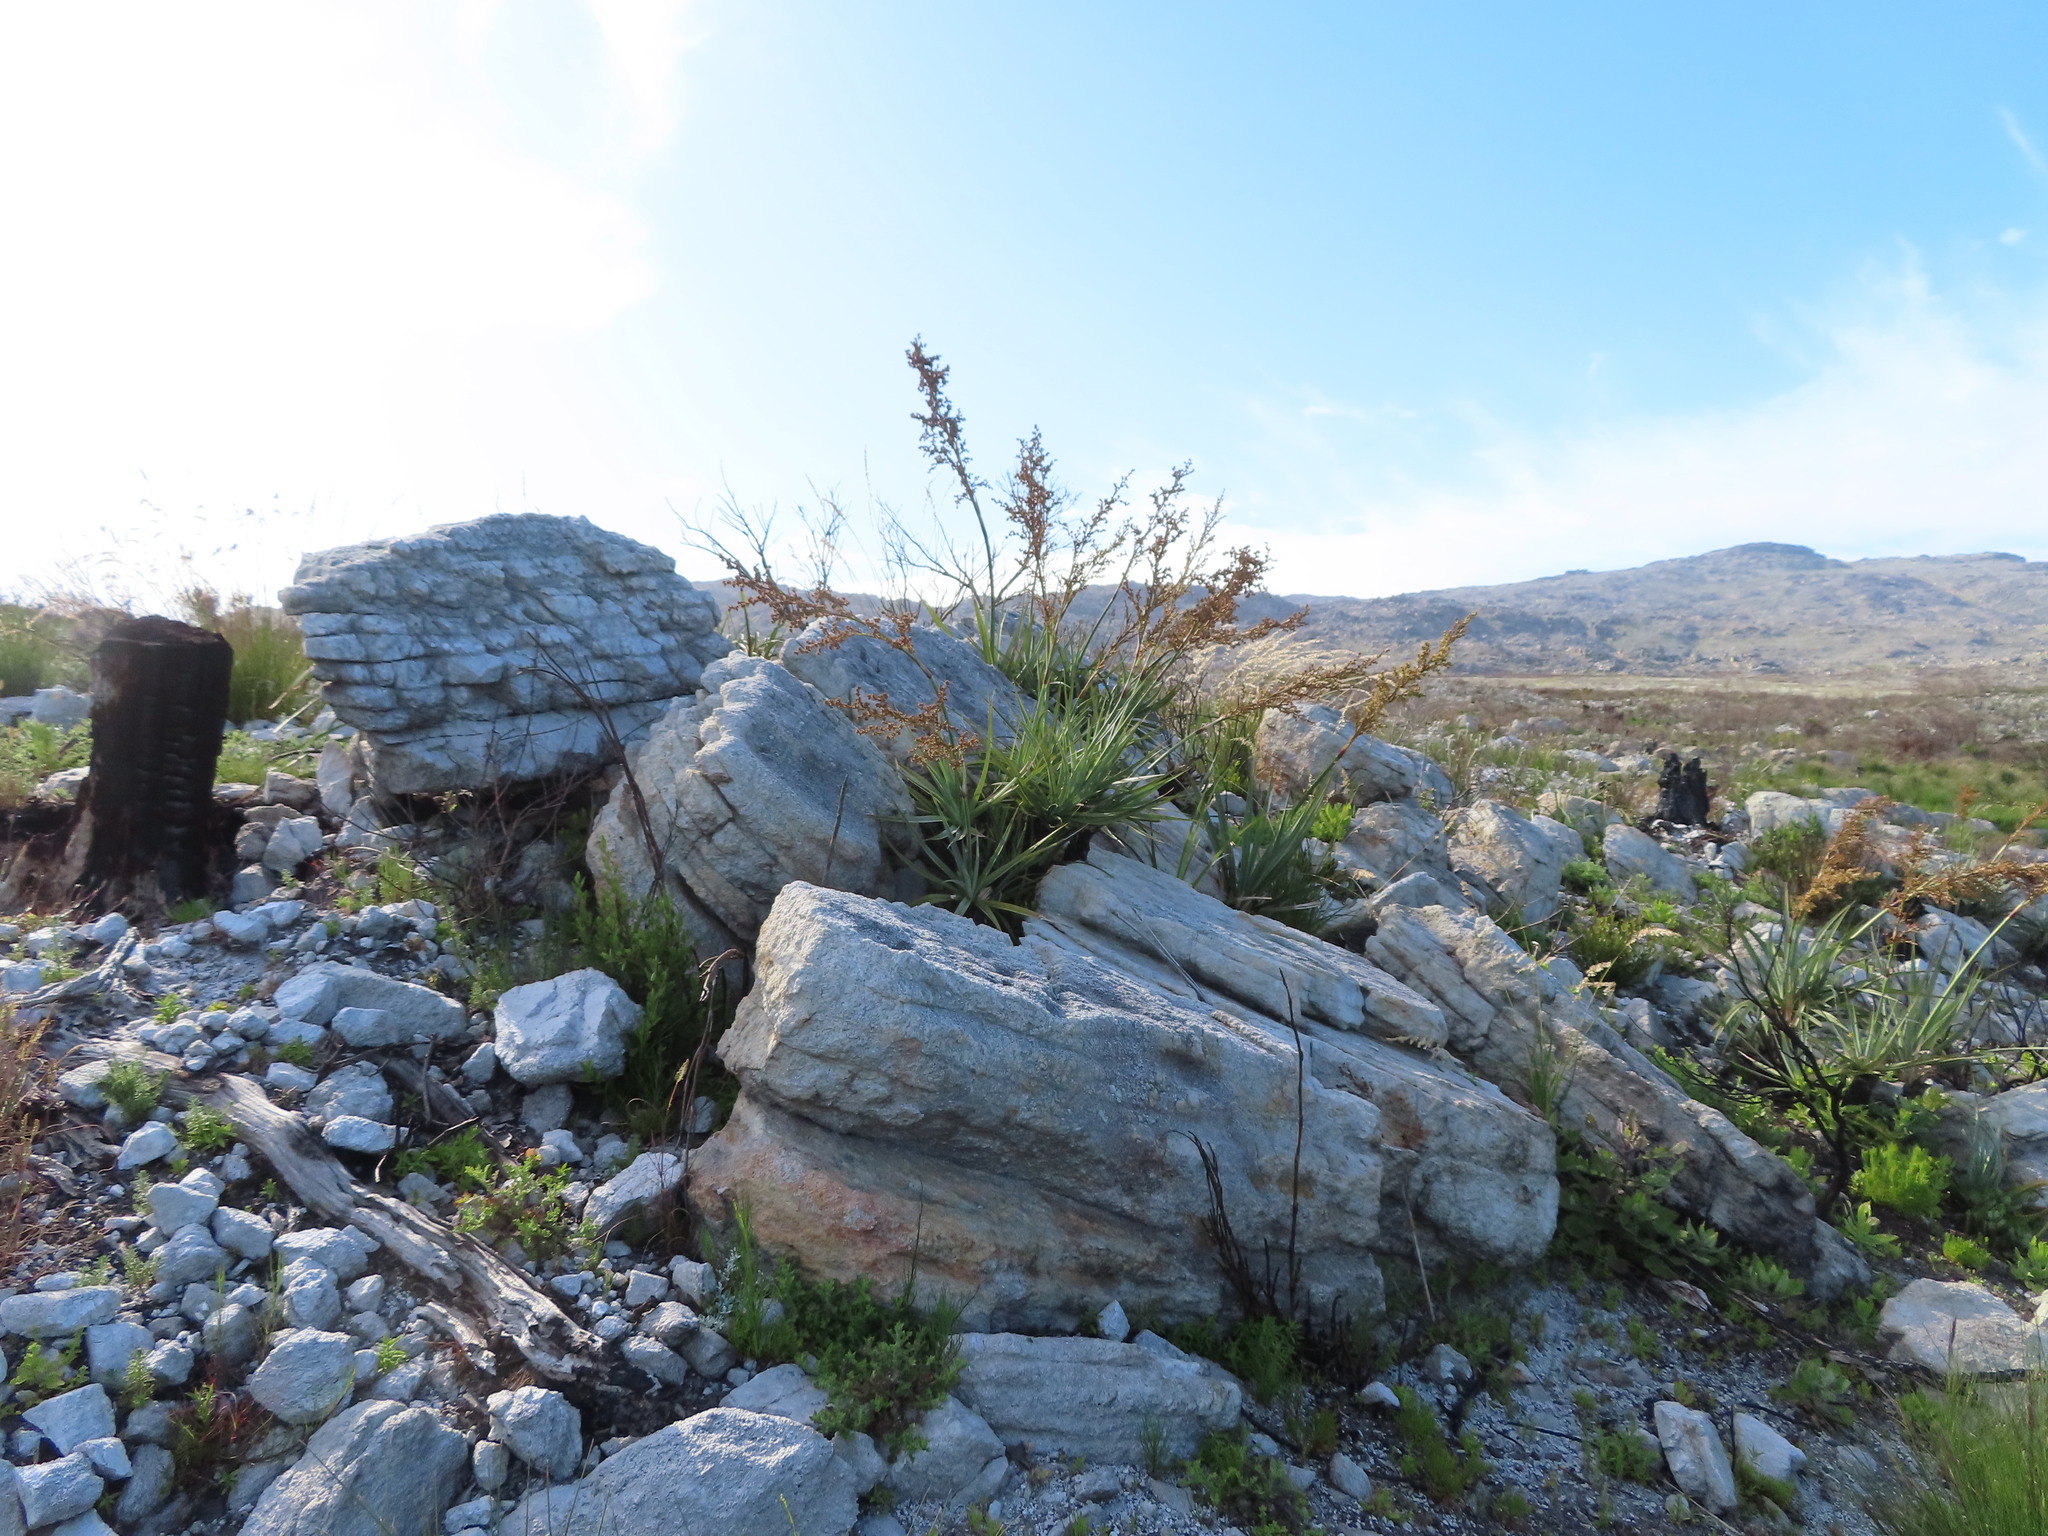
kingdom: Plantae
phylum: Tracheophyta
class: Liliopsida
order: Poales
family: Thurniaceae
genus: Prionium
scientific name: Prionium serratum
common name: Palmiet
